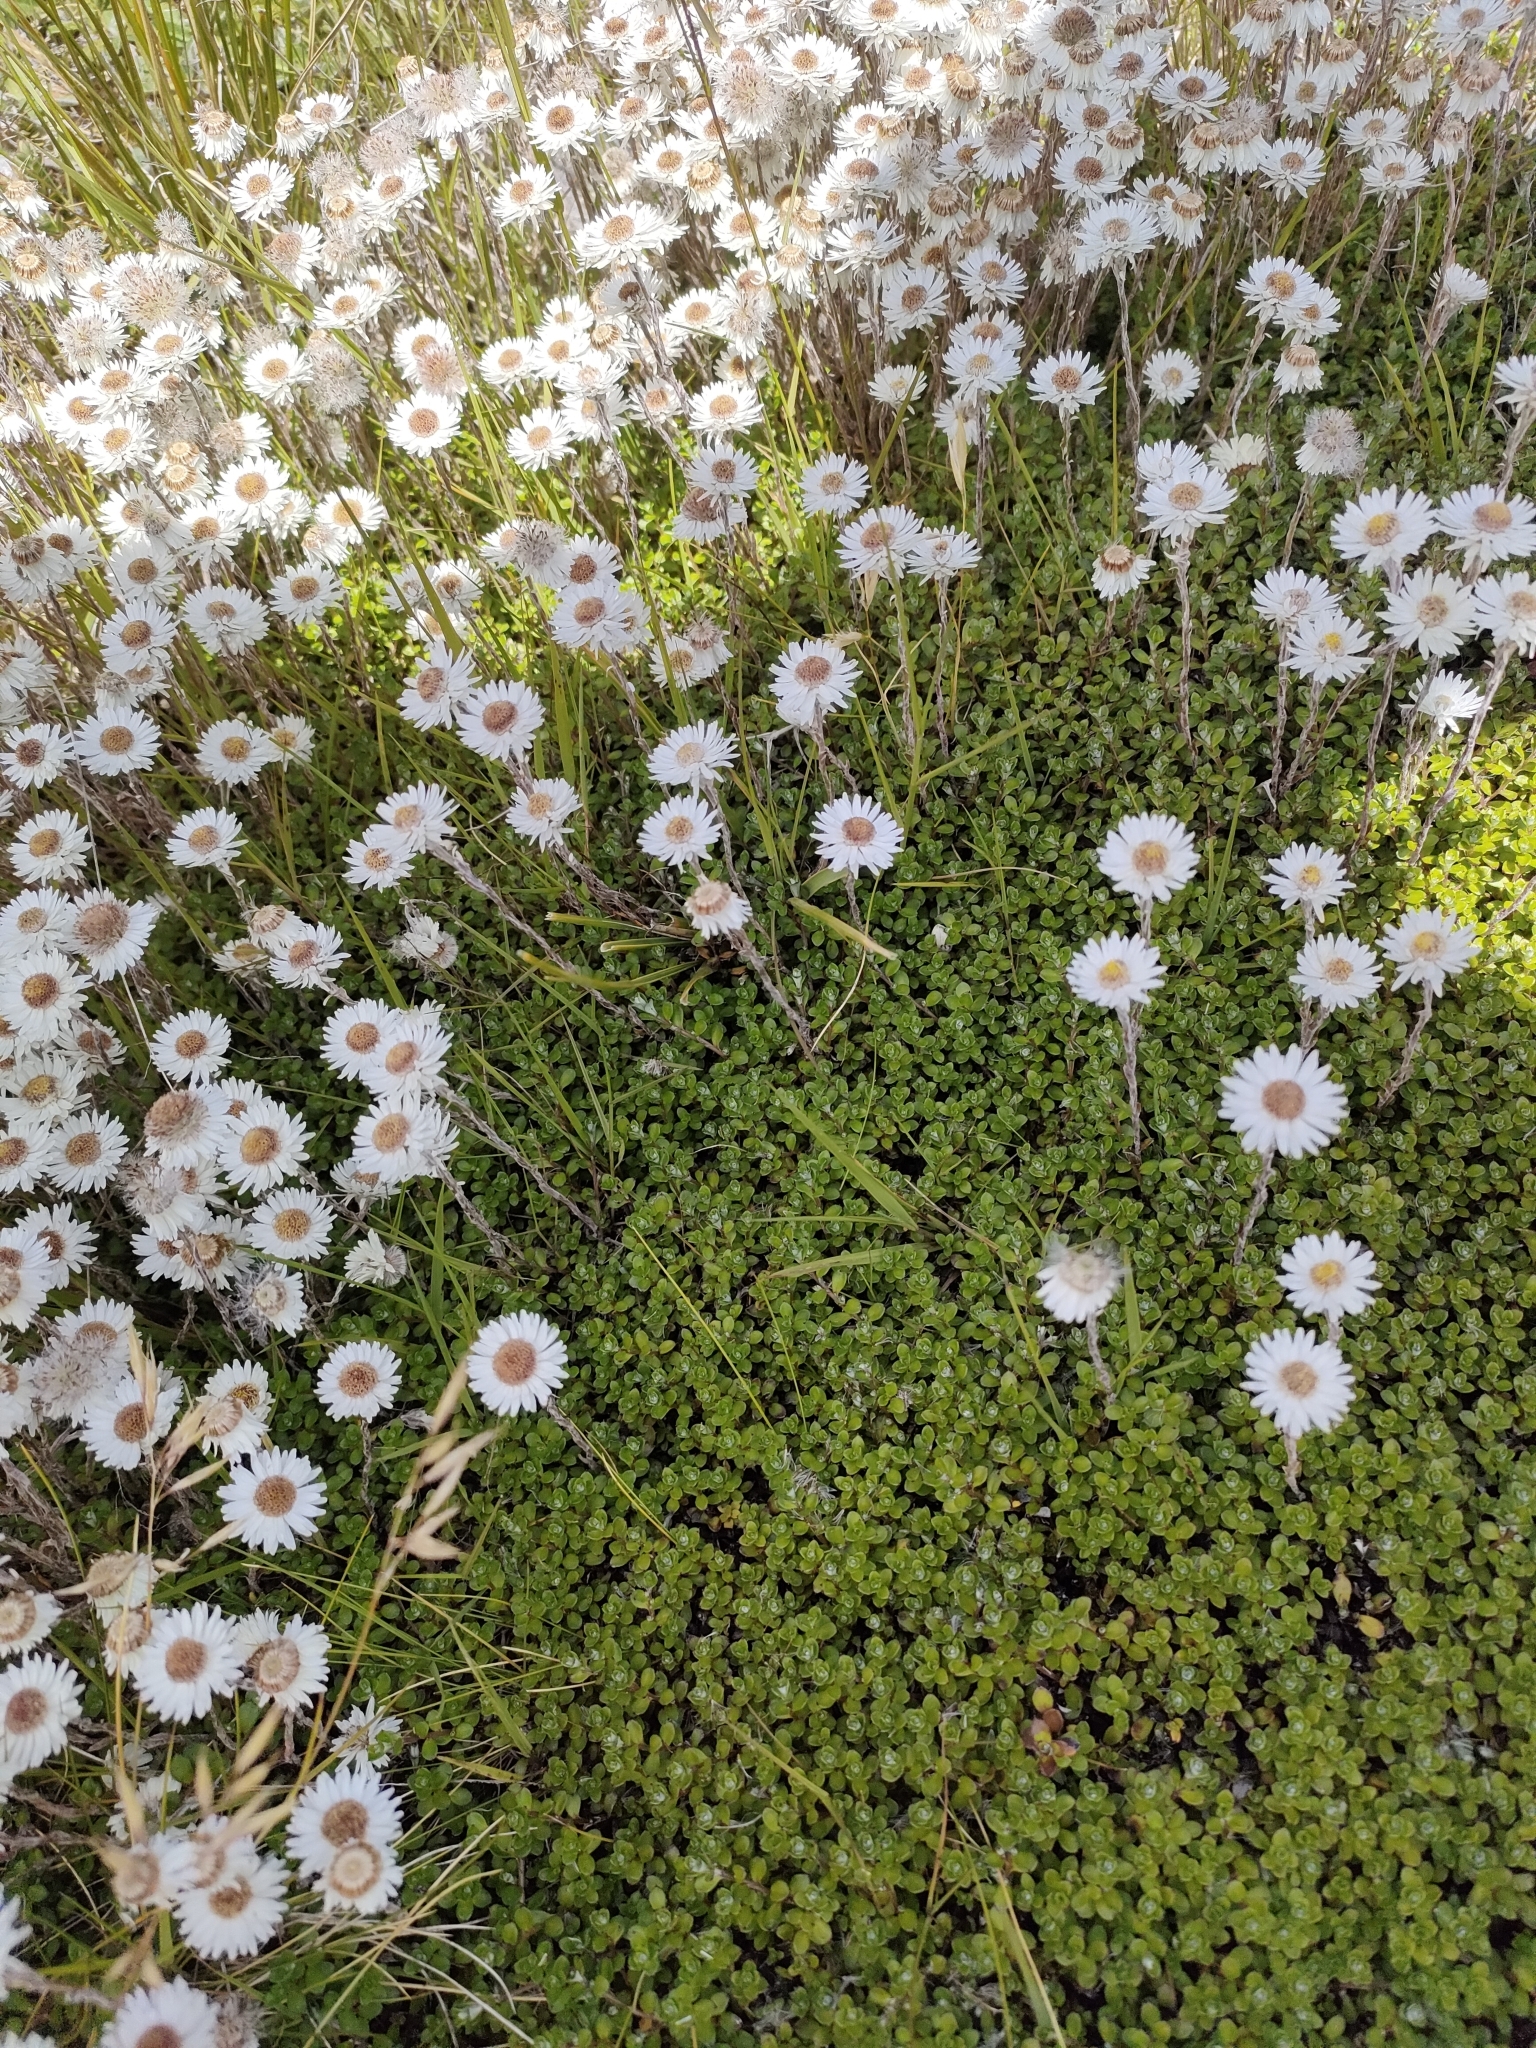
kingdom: Plantae
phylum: Tracheophyta
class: Magnoliopsida
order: Asterales
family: Asteraceae
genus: Anaphalioides
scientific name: Anaphalioides bellidioides
